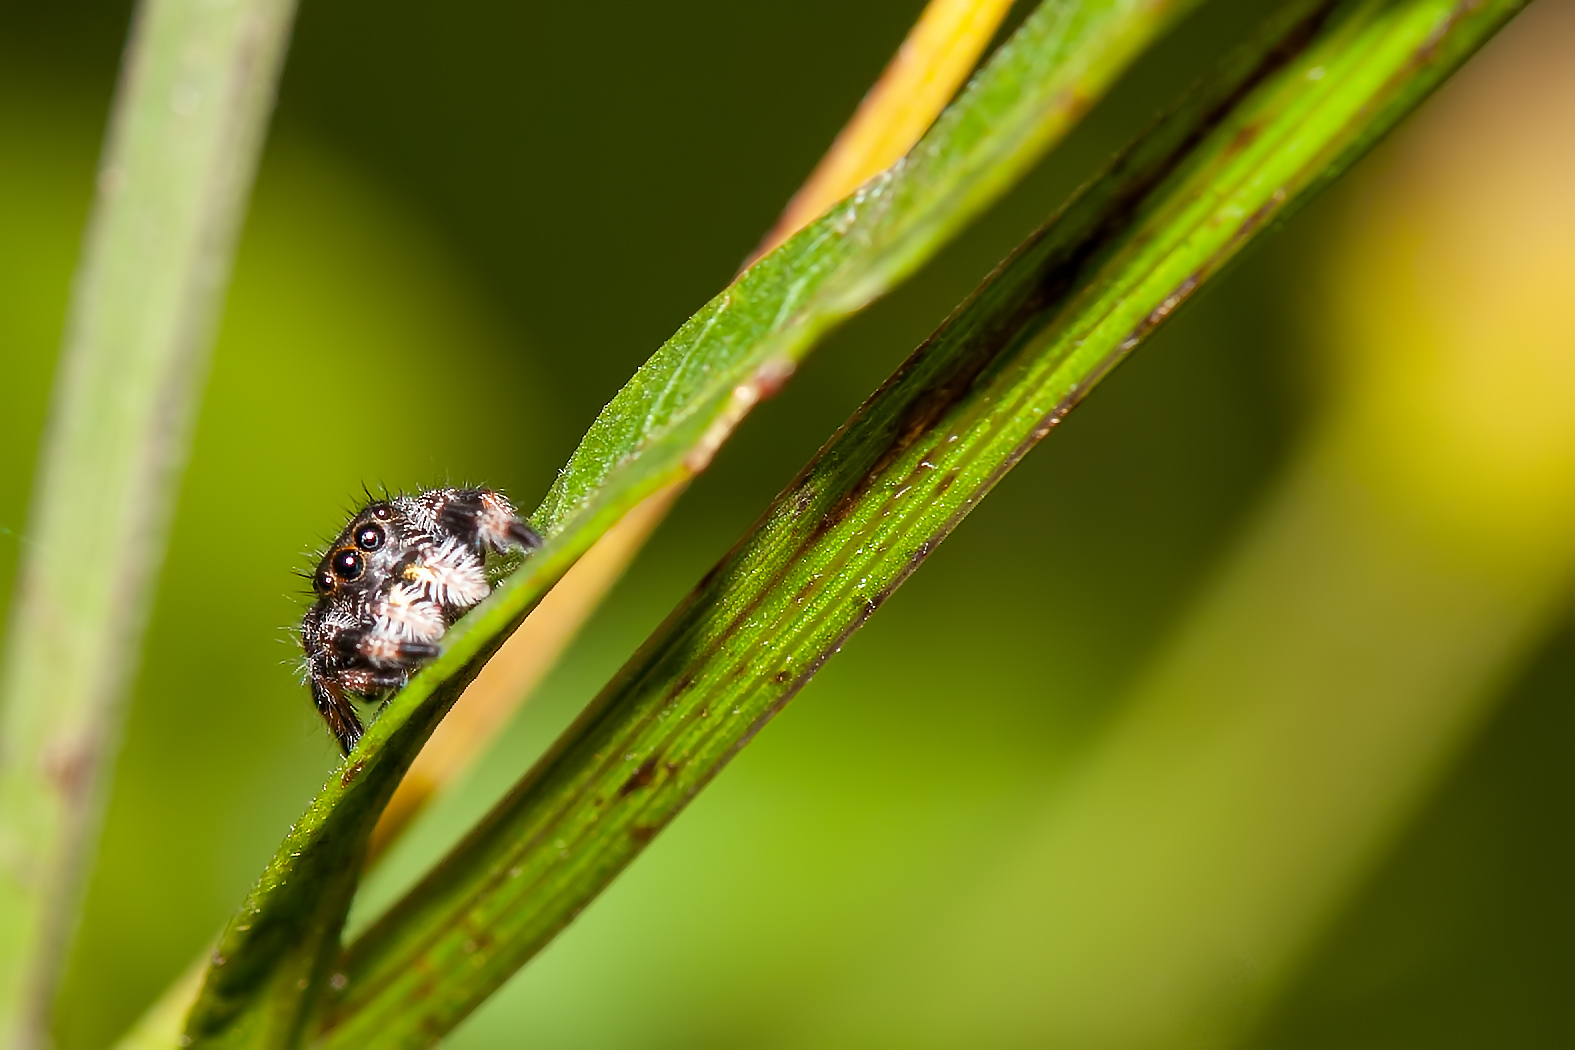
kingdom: Animalia
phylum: Arthropoda
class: Arachnida
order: Araneae
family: Salticidae
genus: Phidippus
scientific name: Phidippus regius
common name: Regal jumper
